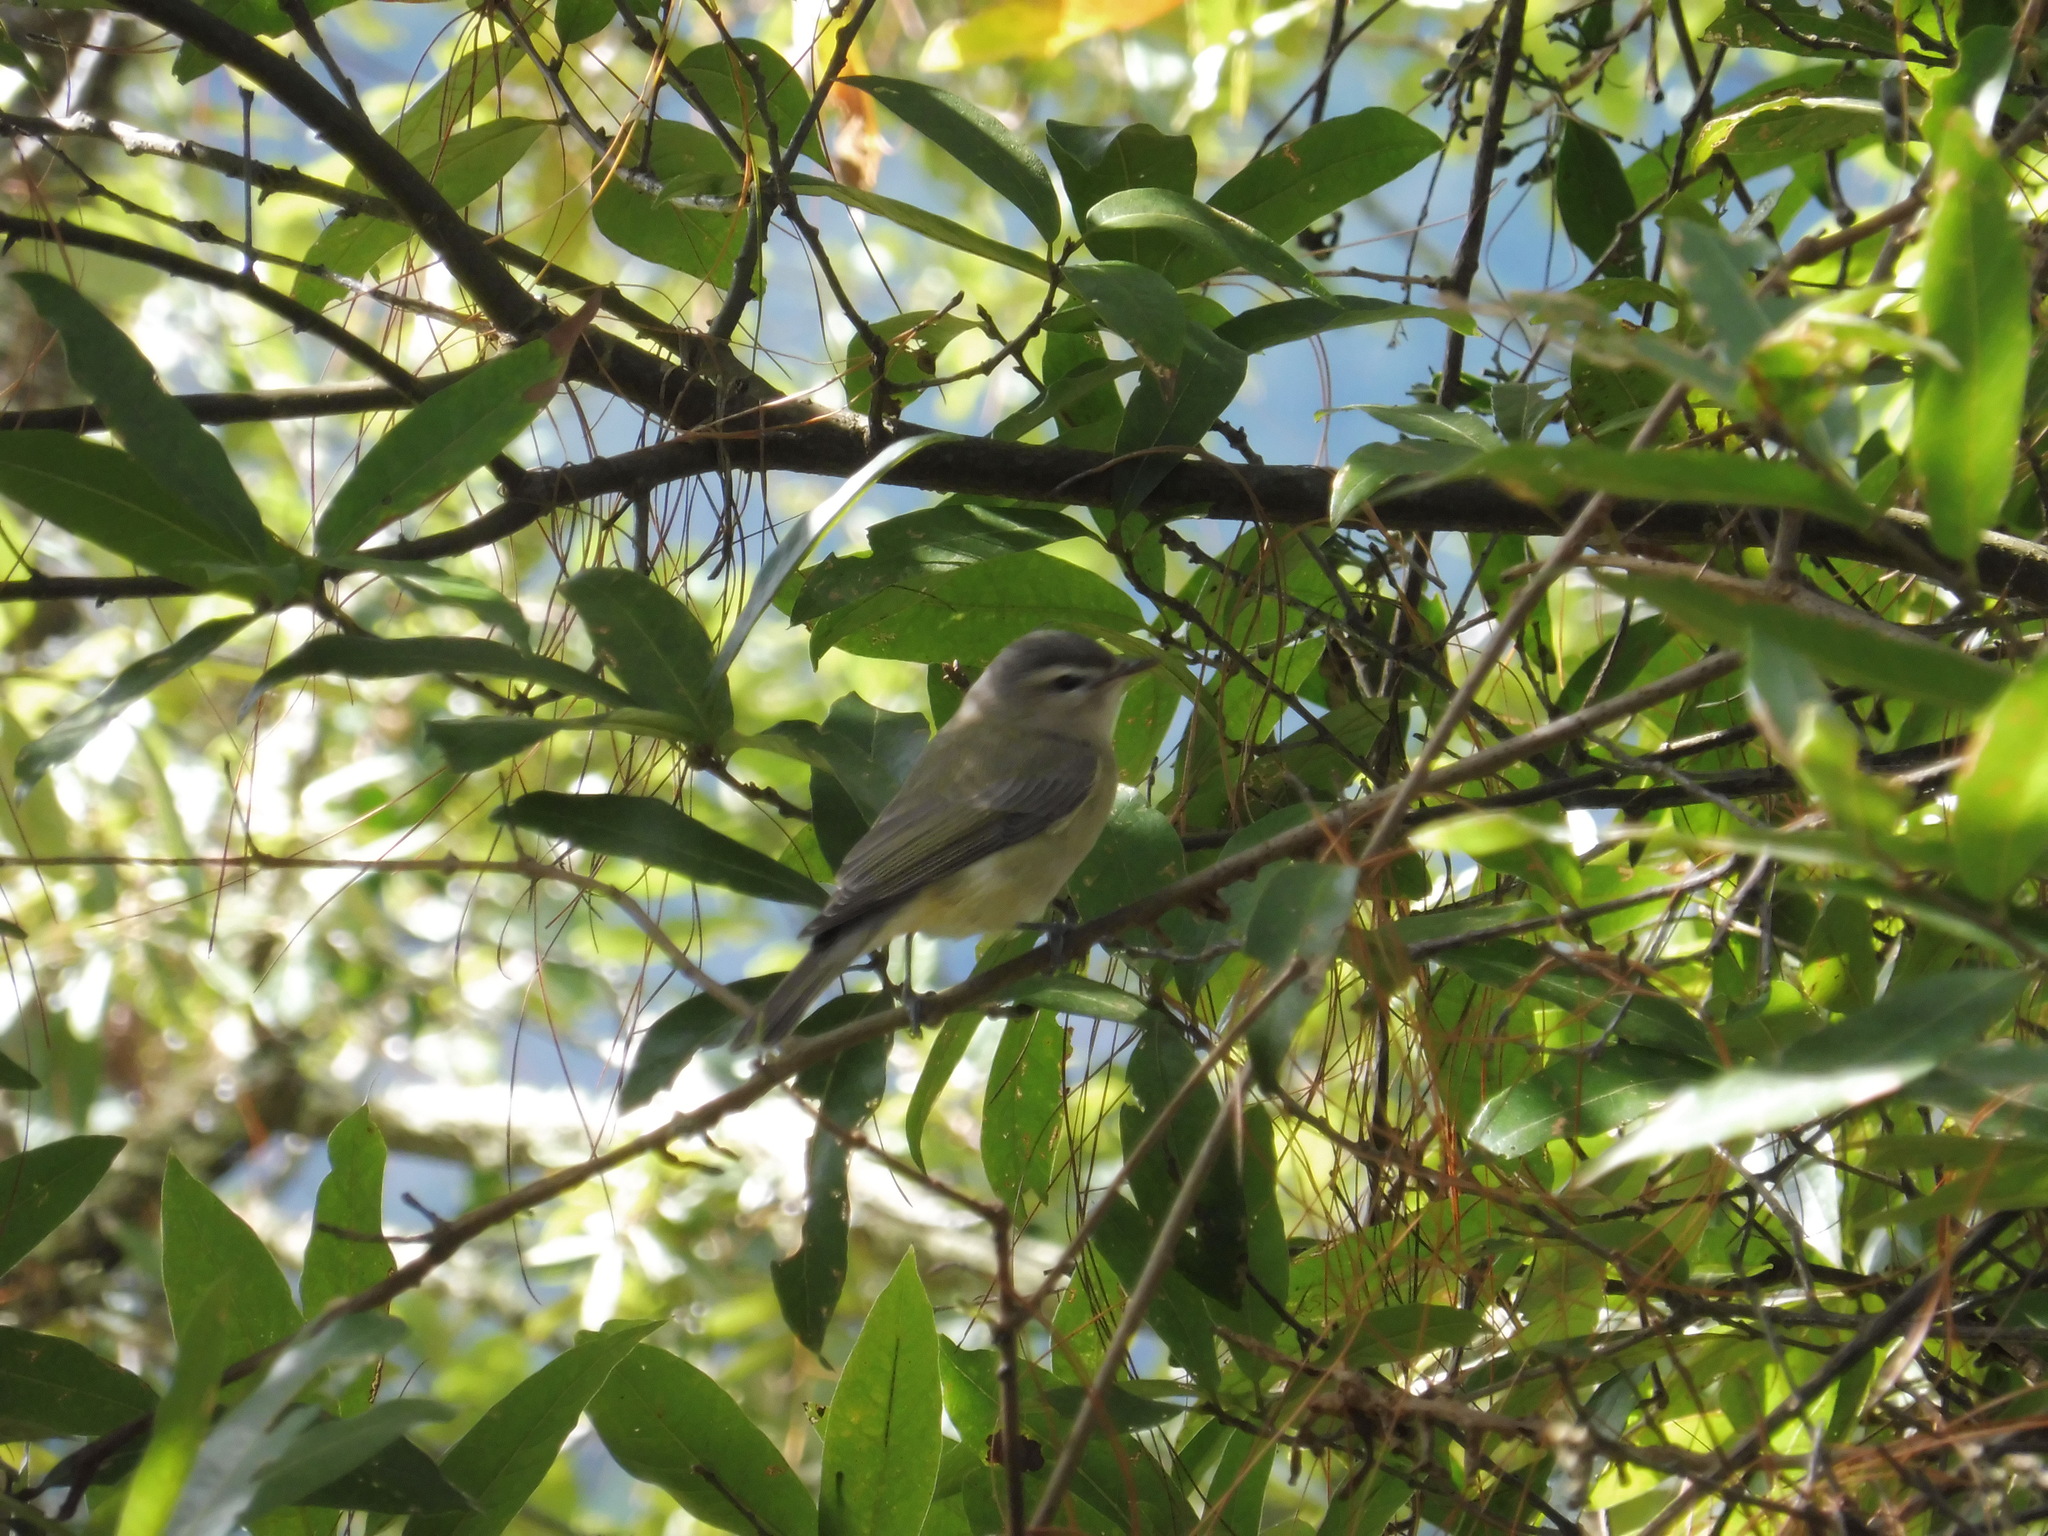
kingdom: Animalia
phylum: Chordata
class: Aves
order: Passeriformes
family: Vireonidae
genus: Vireo
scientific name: Vireo philadelphicus
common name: Philadelphia vireo
